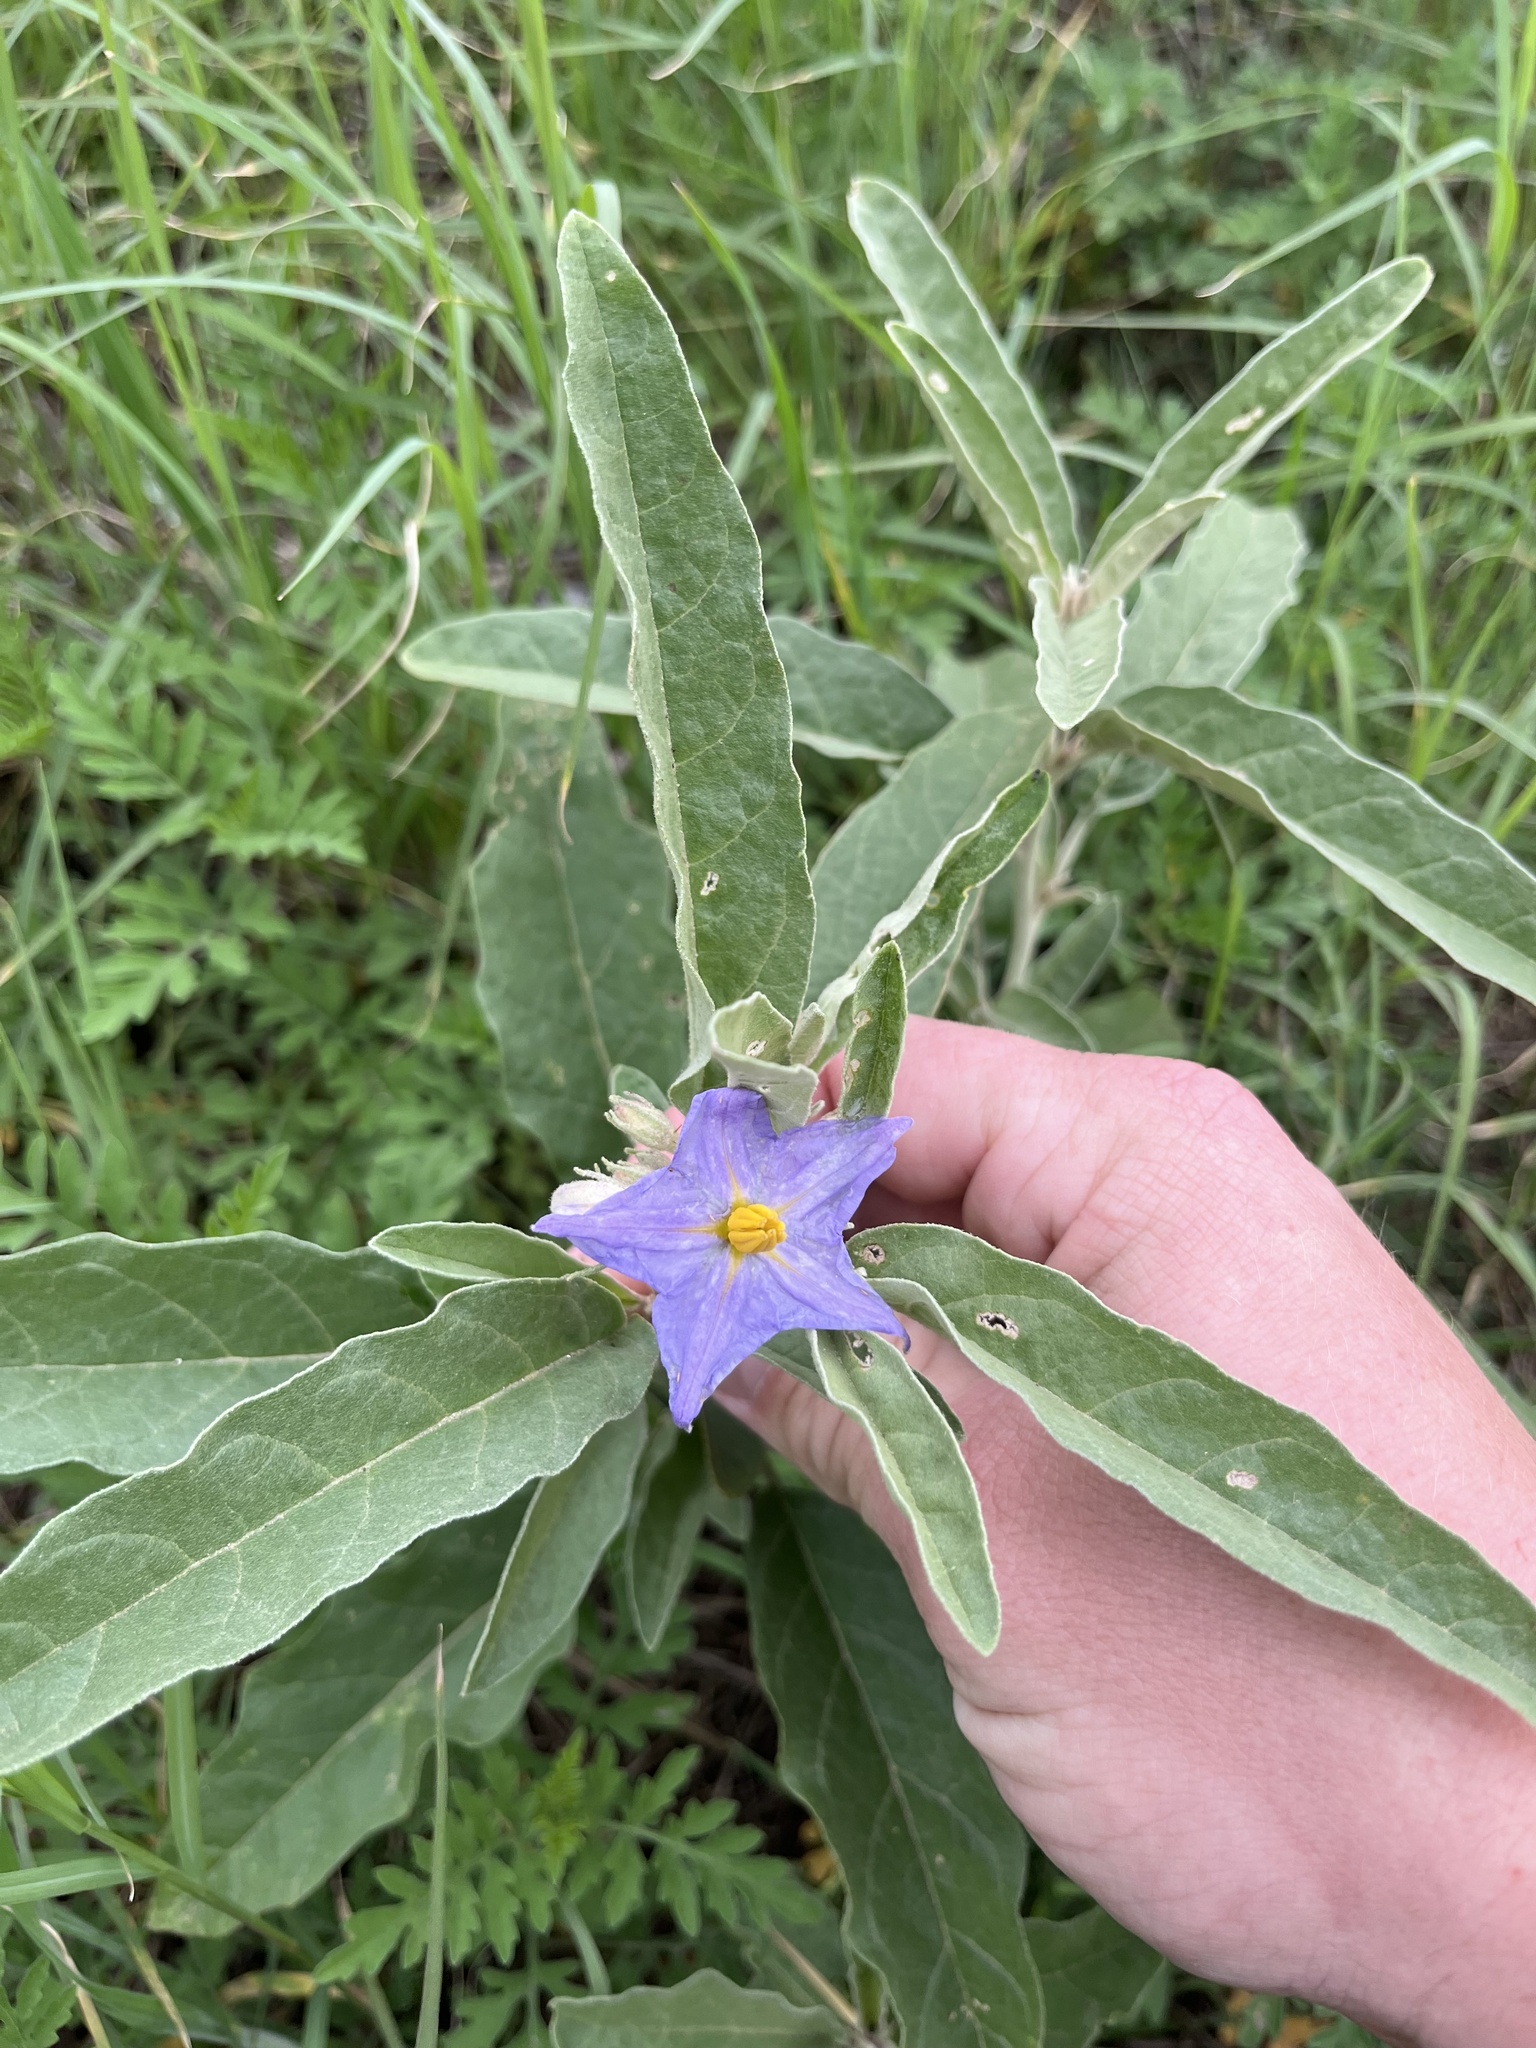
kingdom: Plantae
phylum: Tracheophyta
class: Magnoliopsida
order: Solanales
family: Solanaceae
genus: Solanum
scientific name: Solanum elaeagnifolium
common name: Silverleaf nightshade
